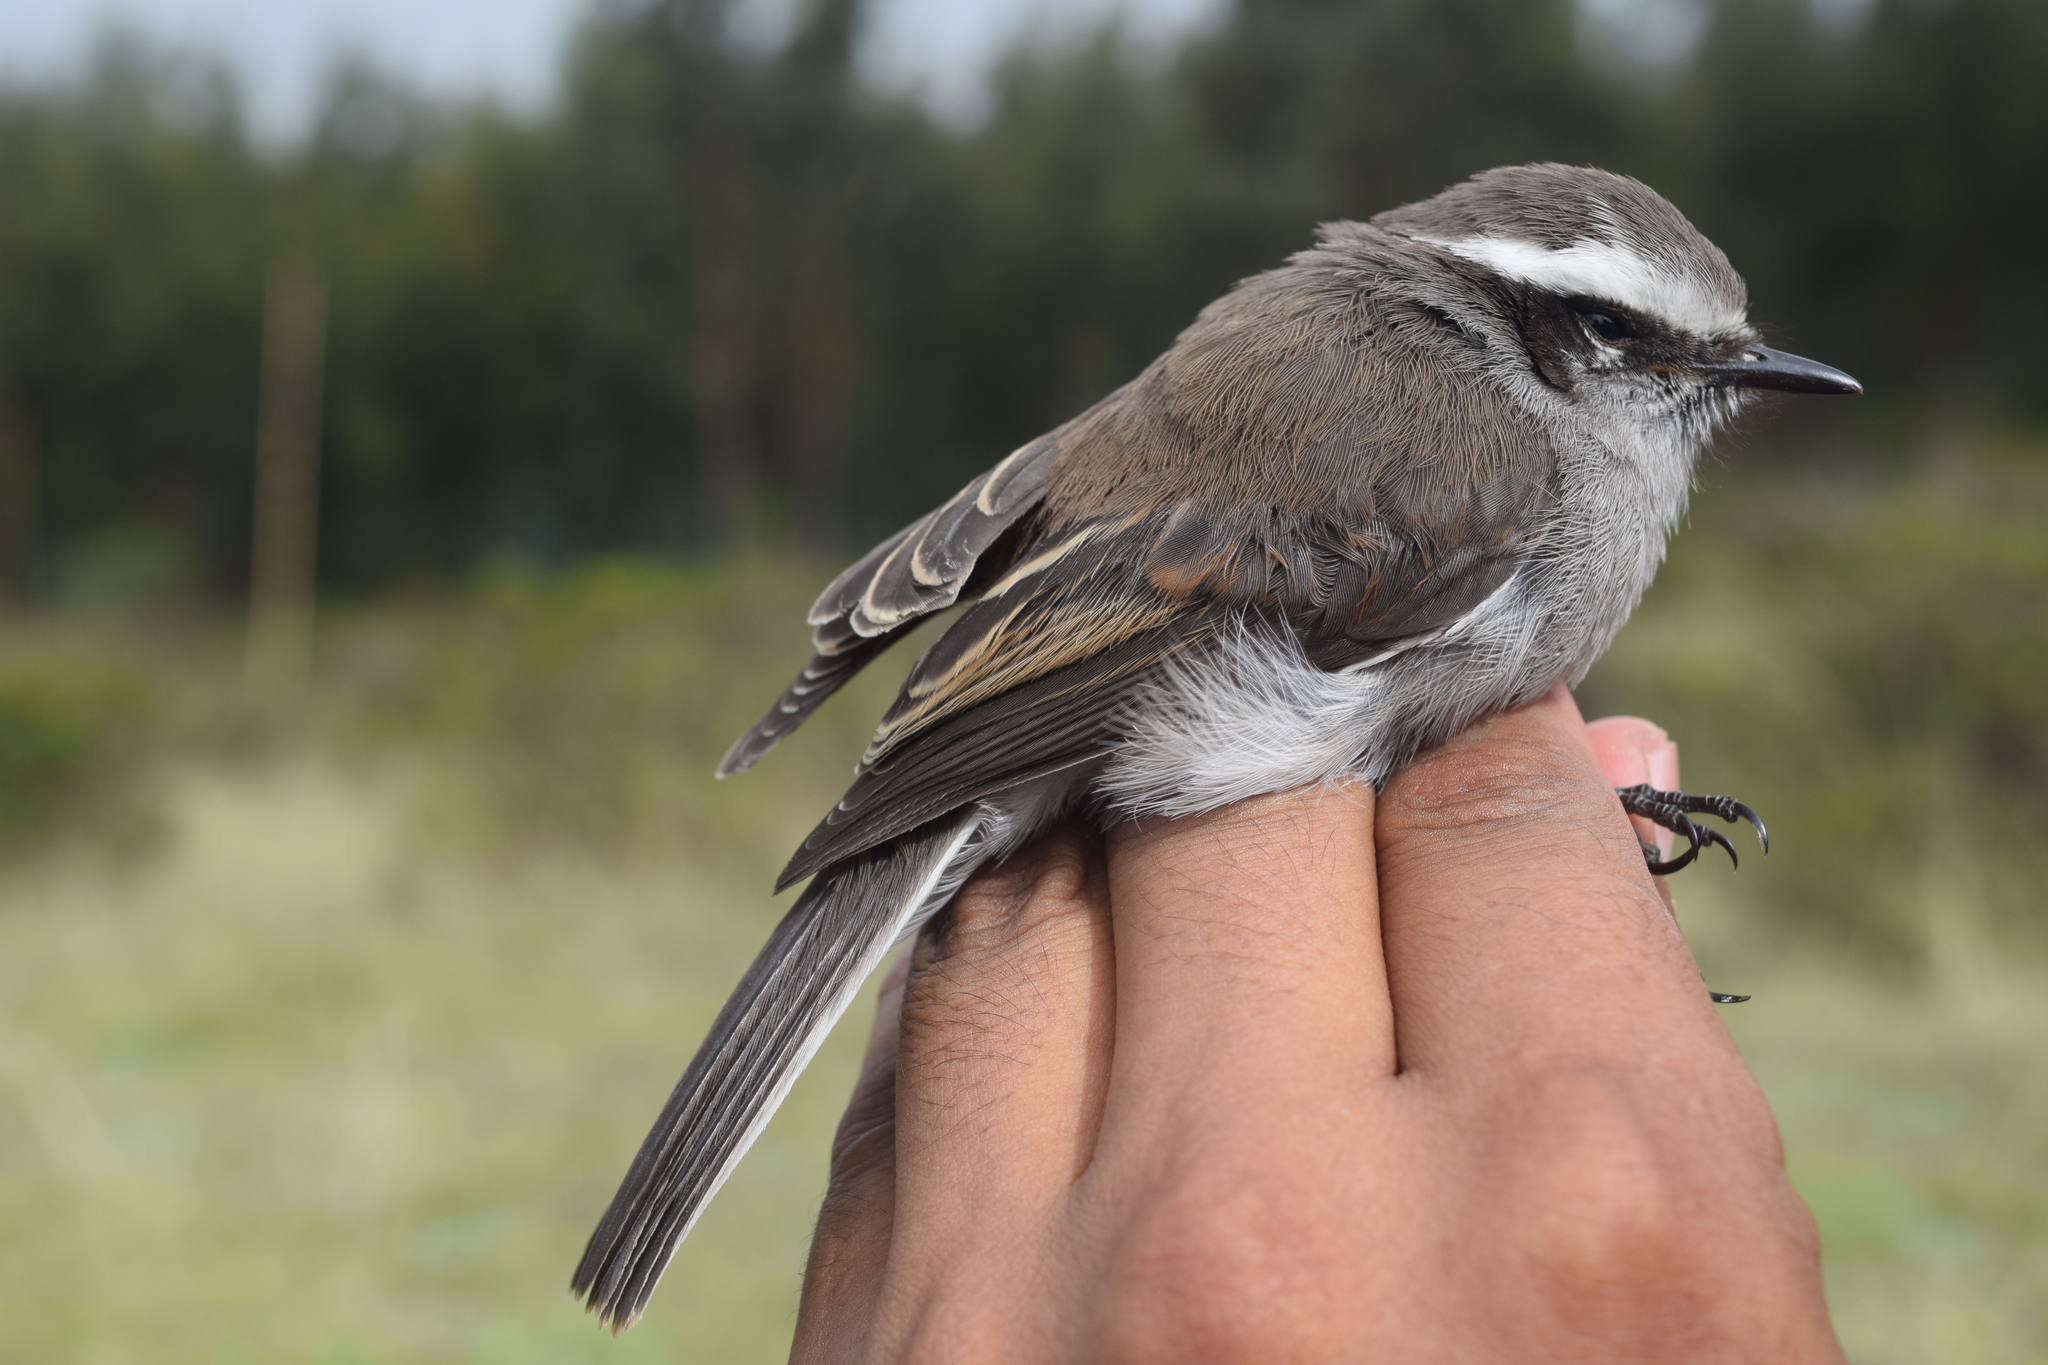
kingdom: Animalia
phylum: Chordata
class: Aves
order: Passeriformes
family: Tyrannidae
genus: Ochthoeca
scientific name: Ochthoeca leucophrys
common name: White-browed chat-tyrant
